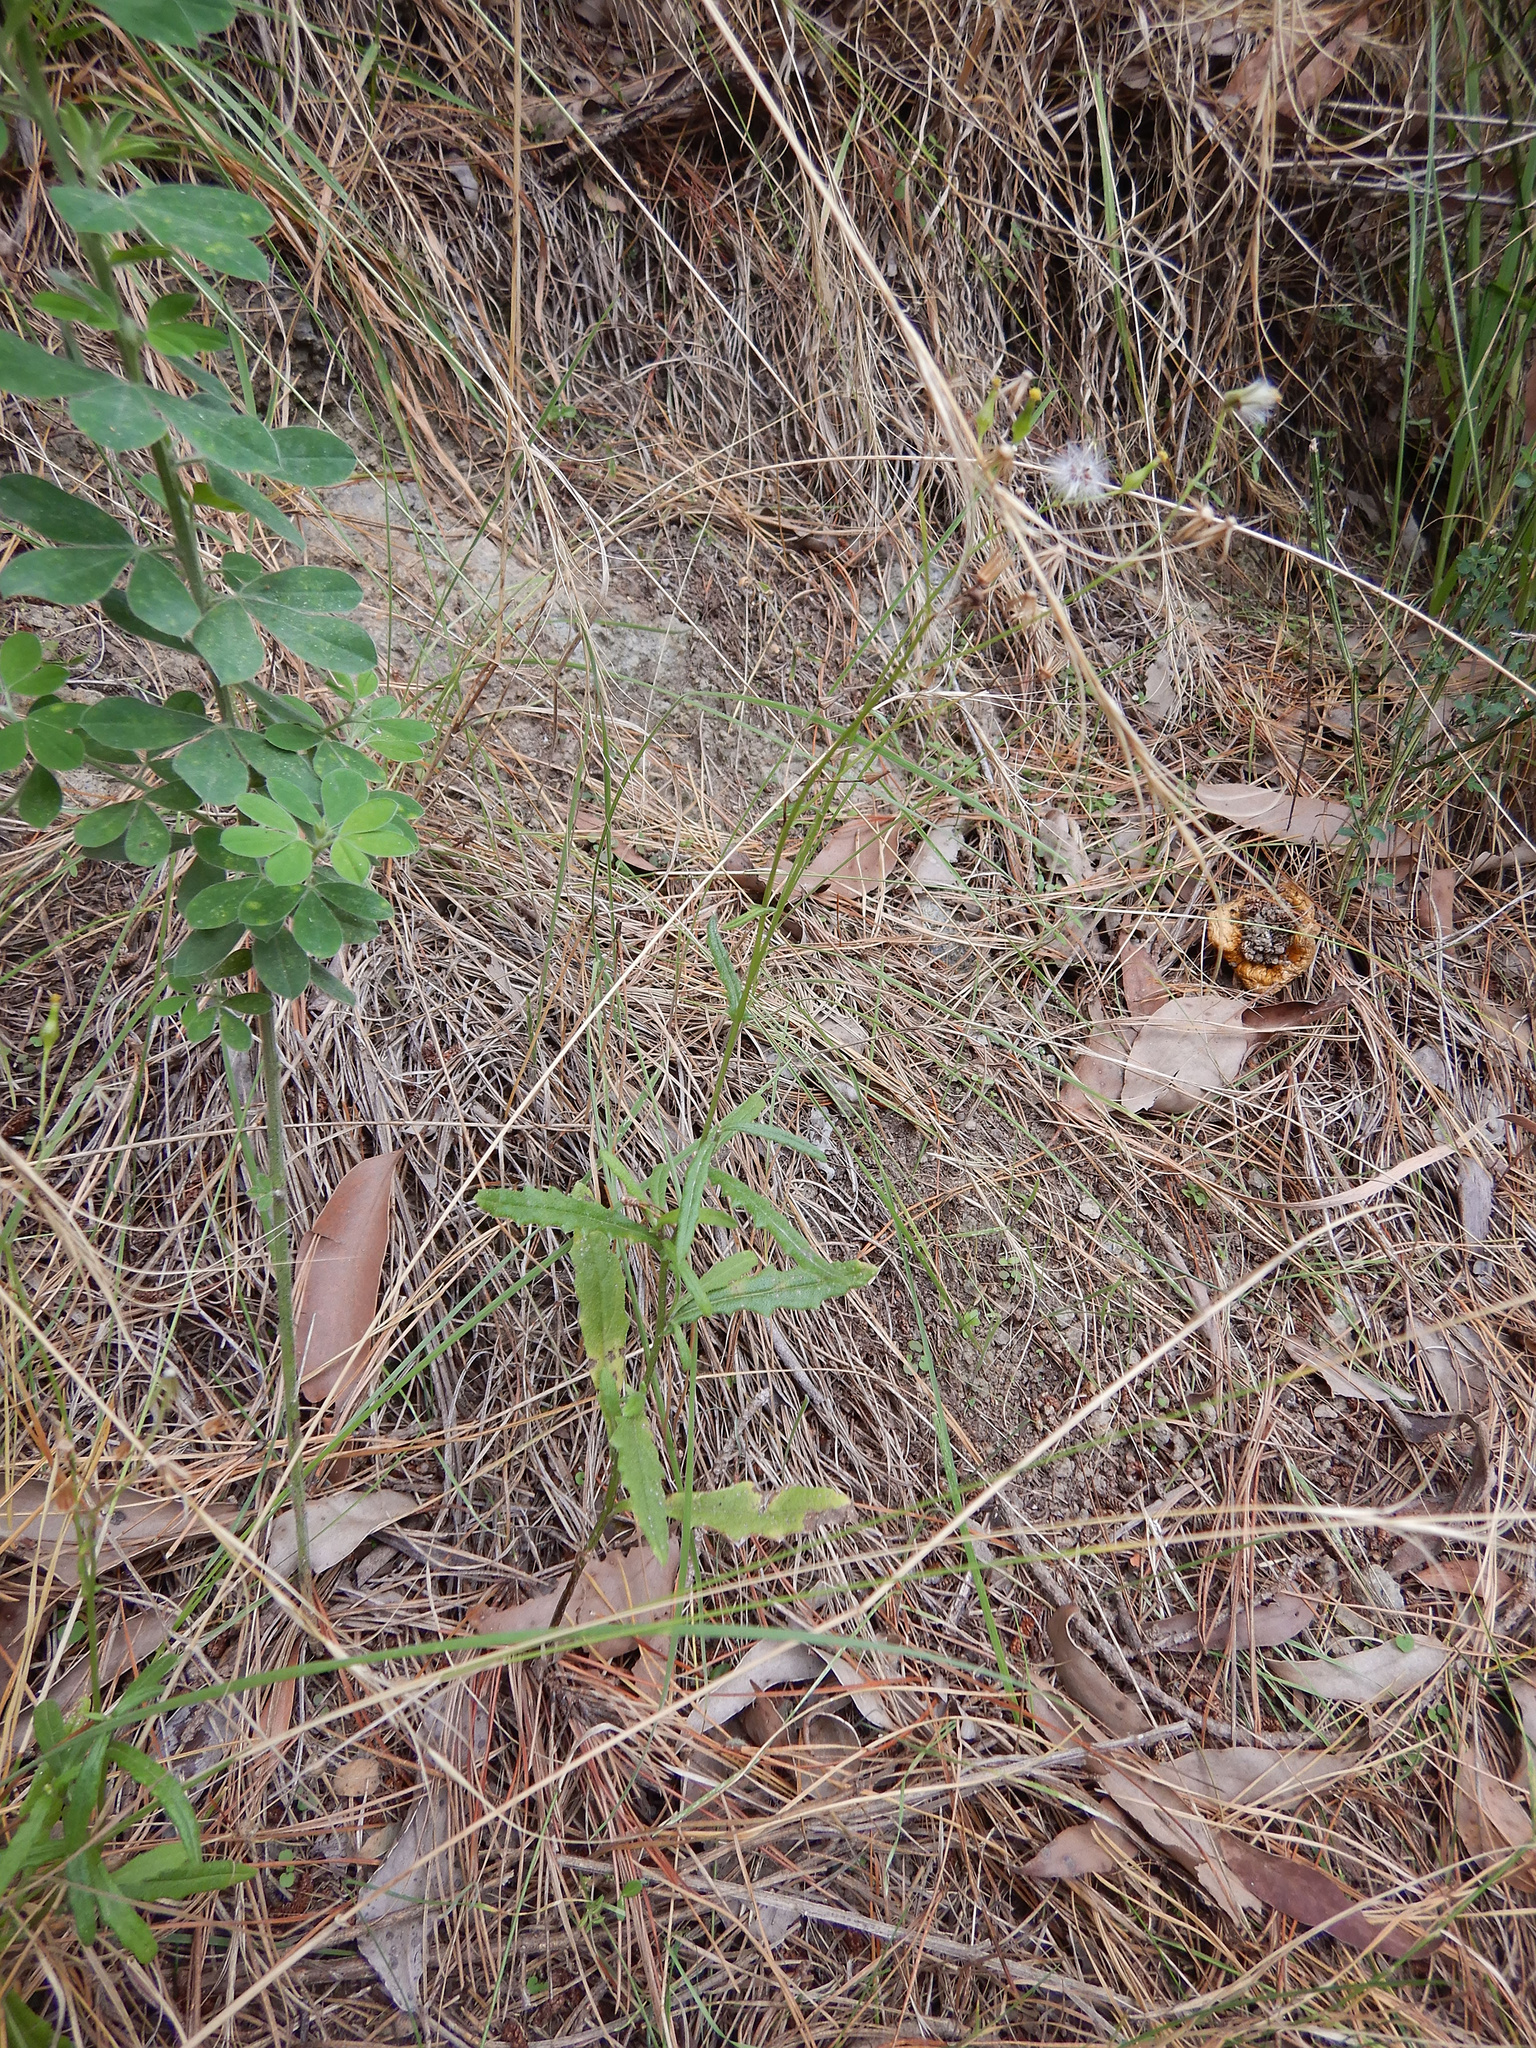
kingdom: Plantae
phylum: Tracheophyta
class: Magnoliopsida
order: Asterales
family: Asteraceae
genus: Senecio
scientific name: Senecio hispidulus
